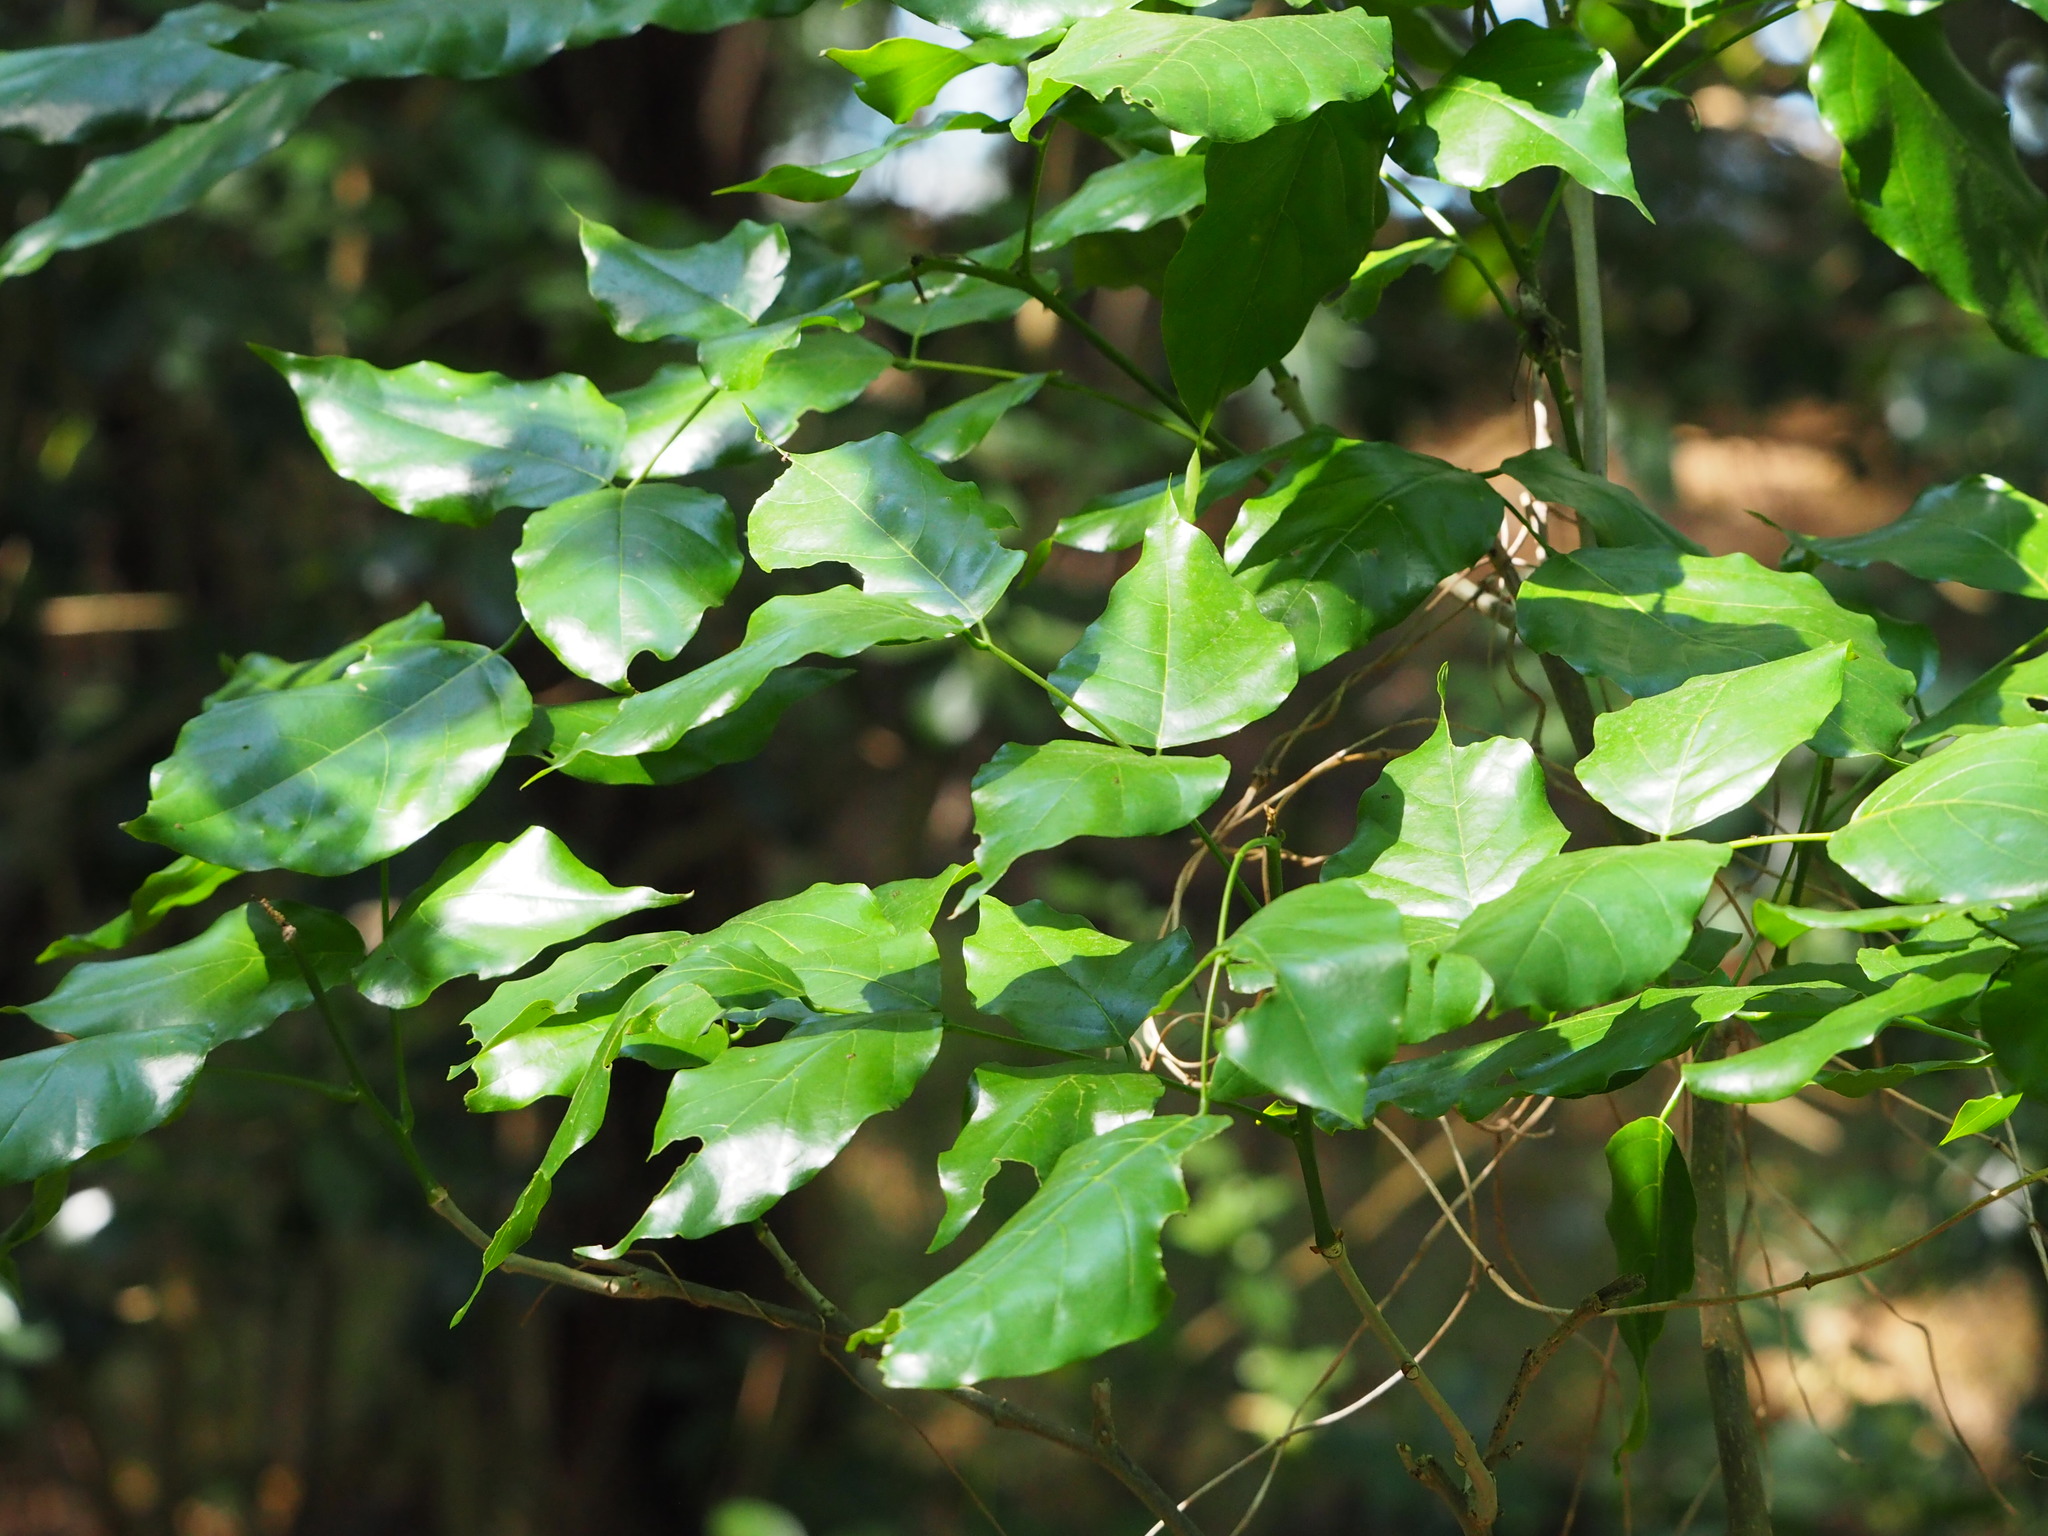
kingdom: Plantae
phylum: Tracheophyta
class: Magnoliopsida
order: Fabales
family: Fabaceae
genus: Pongamia
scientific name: Pongamia pinnata
